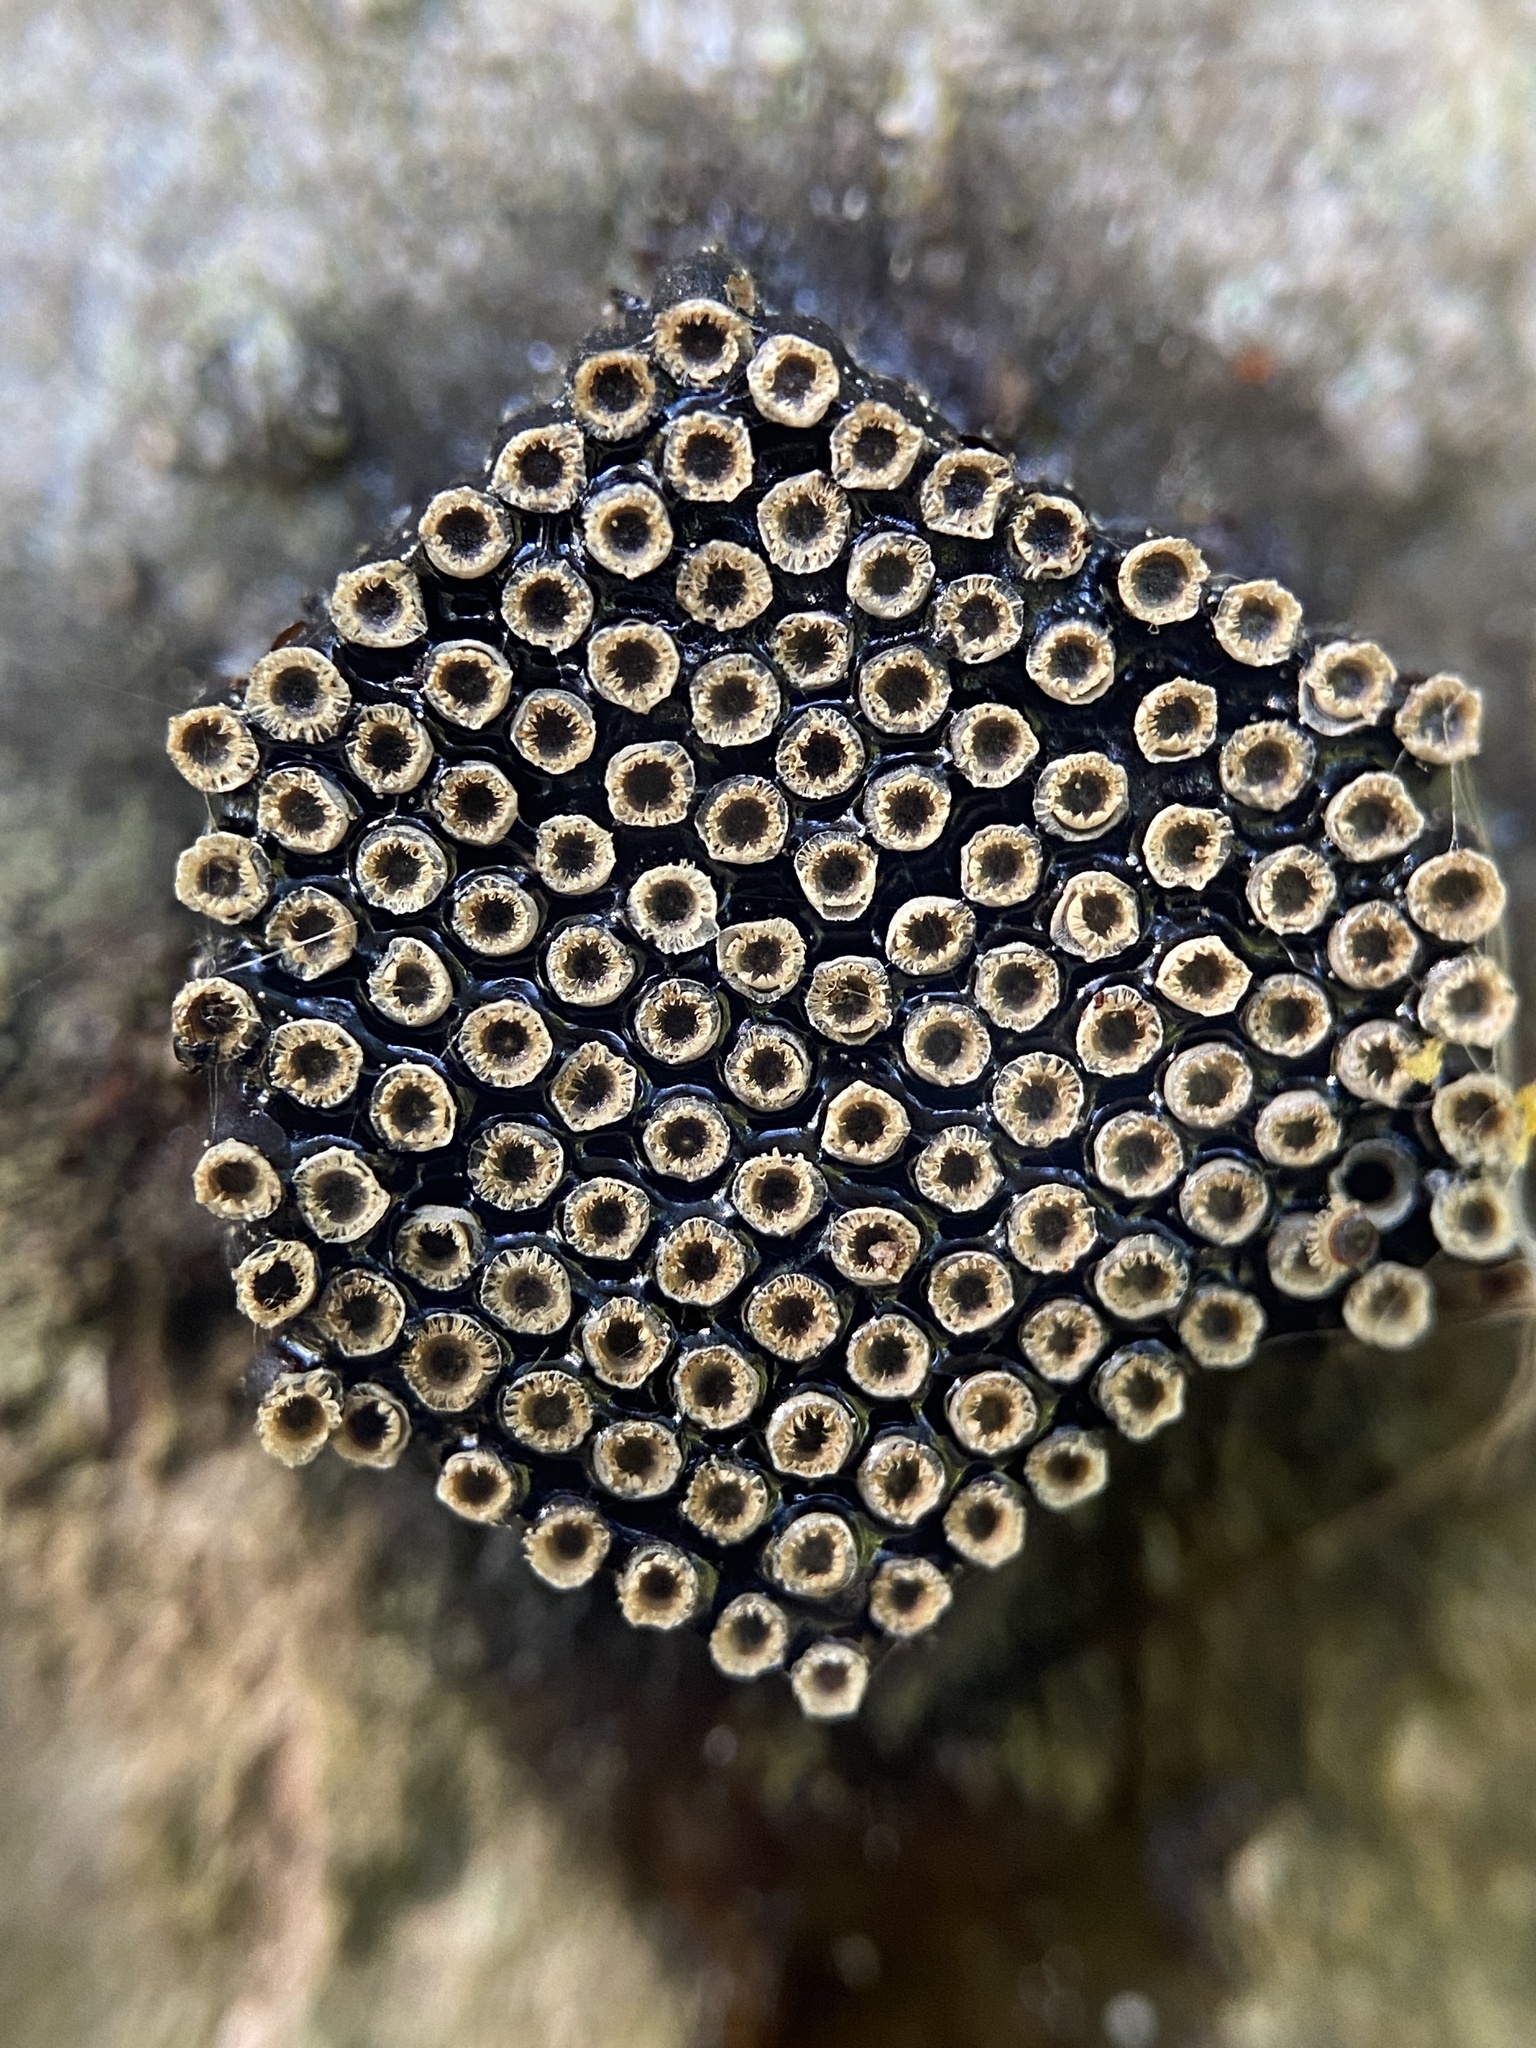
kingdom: Animalia
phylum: Arthropoda
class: Insecta
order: Hemiptera
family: Reduviidae
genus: Arilus
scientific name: Arilus cristatus
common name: North american wheel bug
